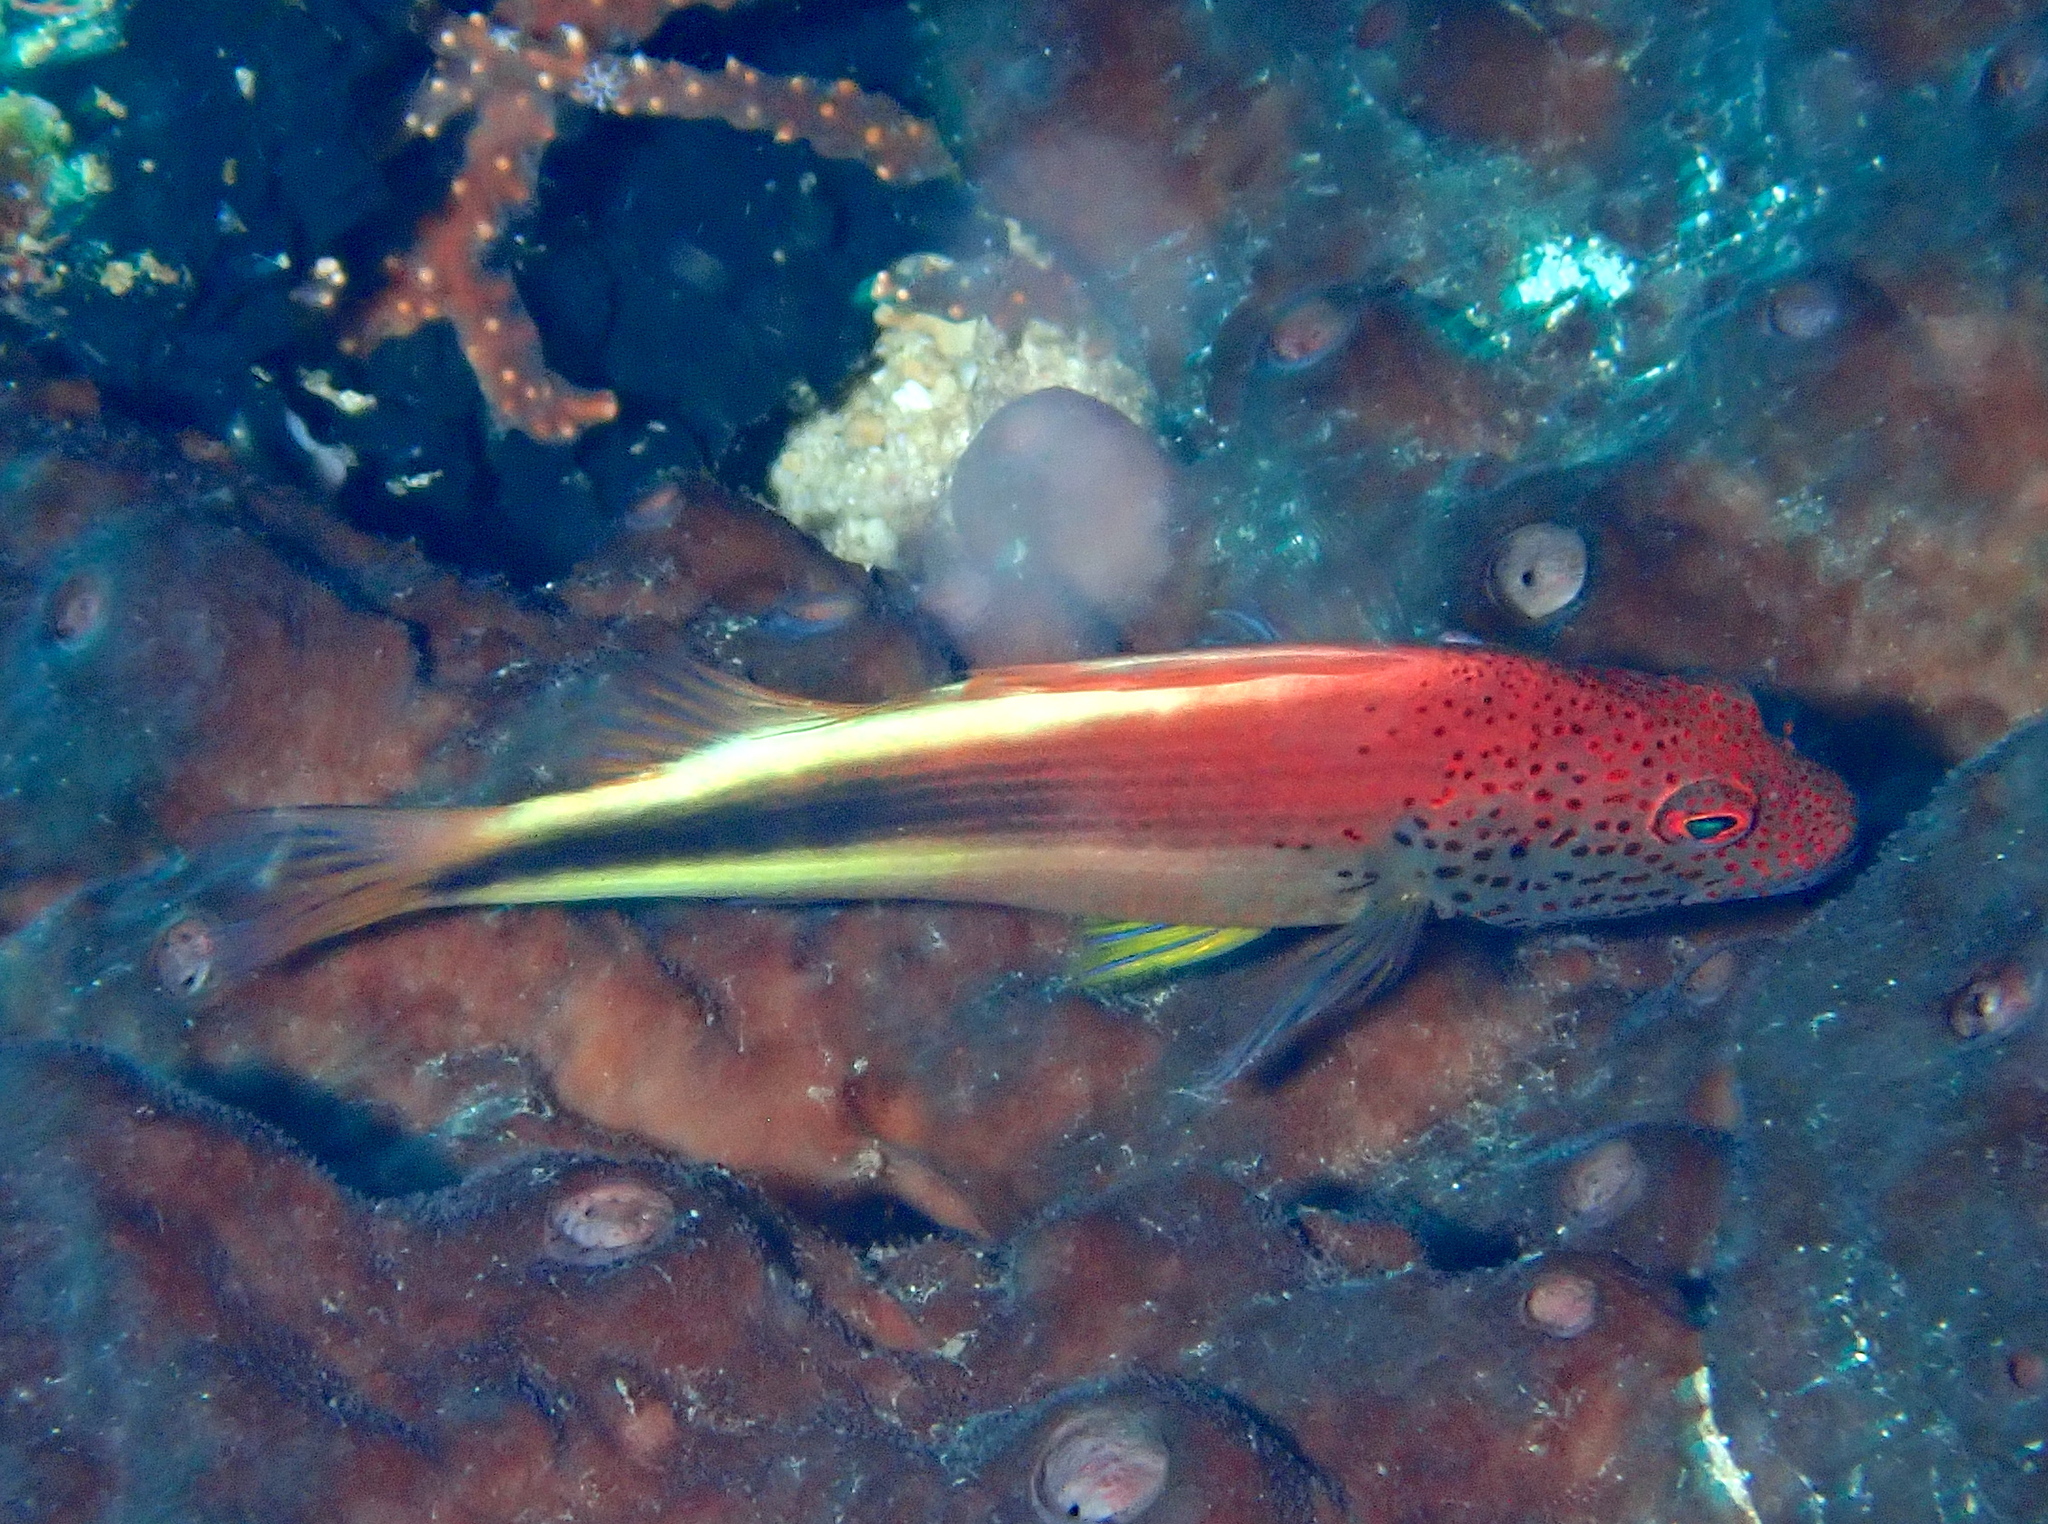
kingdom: Animalia
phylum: Chordata
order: Perciformes
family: Cirrhitidae
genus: Paracirrhites
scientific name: Paracirrhites forsteri
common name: Freckled hawkfish
